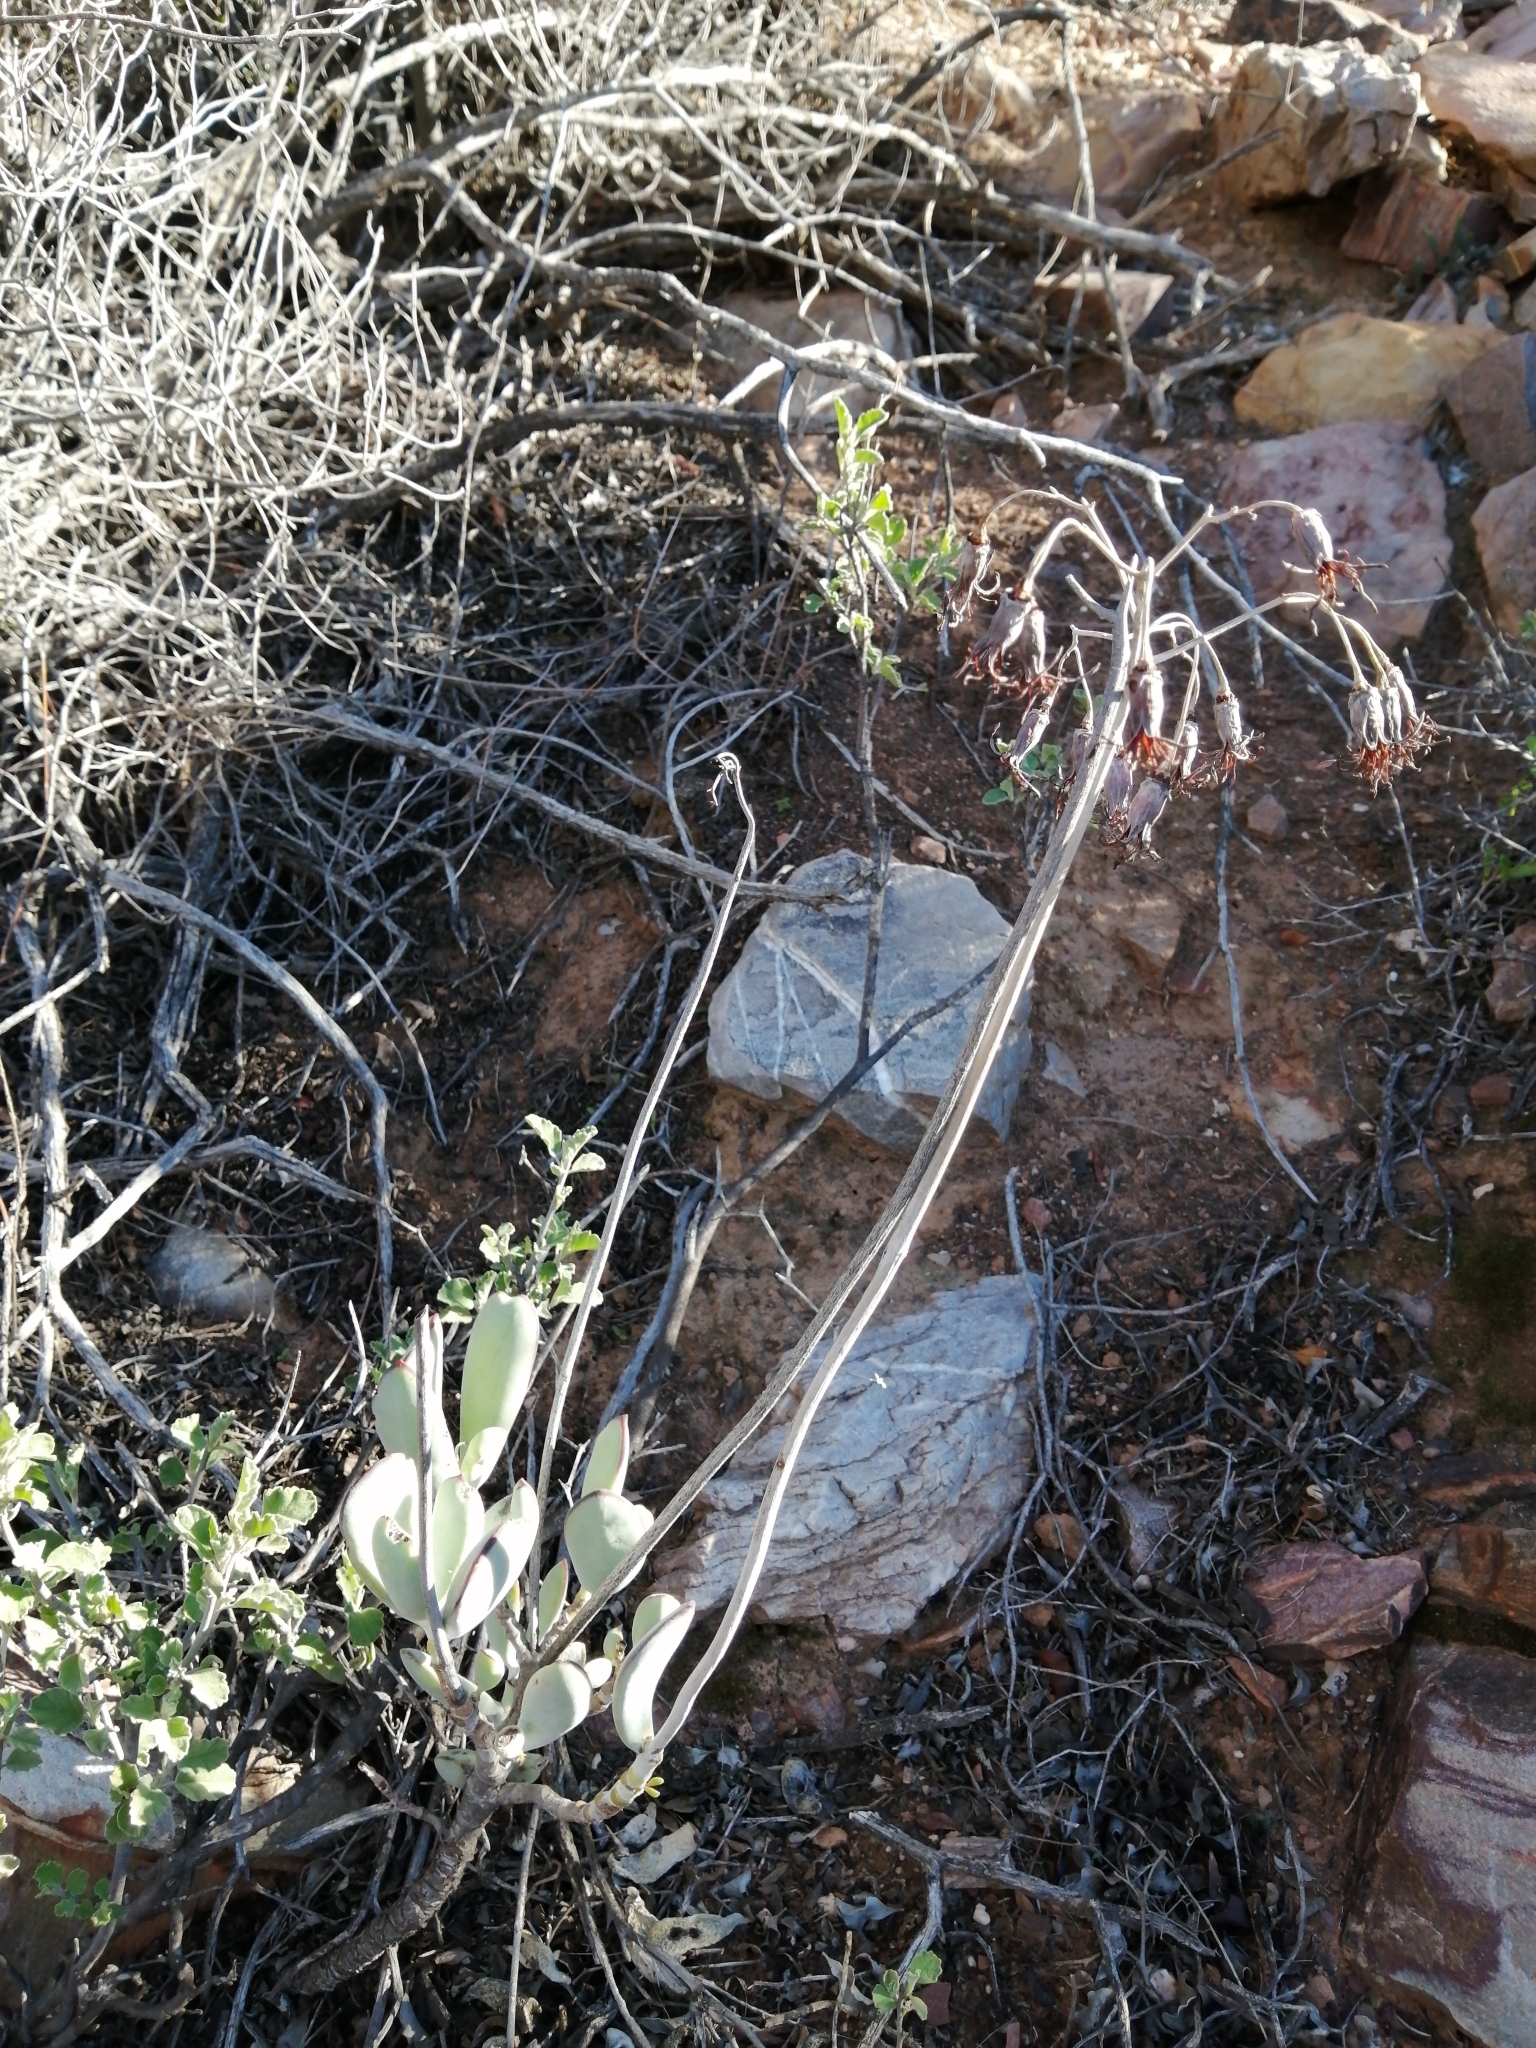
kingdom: Plantae
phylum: Tracheophyta
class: Magnoliopsida
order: Saxifragales
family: Crassulaceae
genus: Cotyledon
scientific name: Cotyledon orbiculata
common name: Pig's ear
